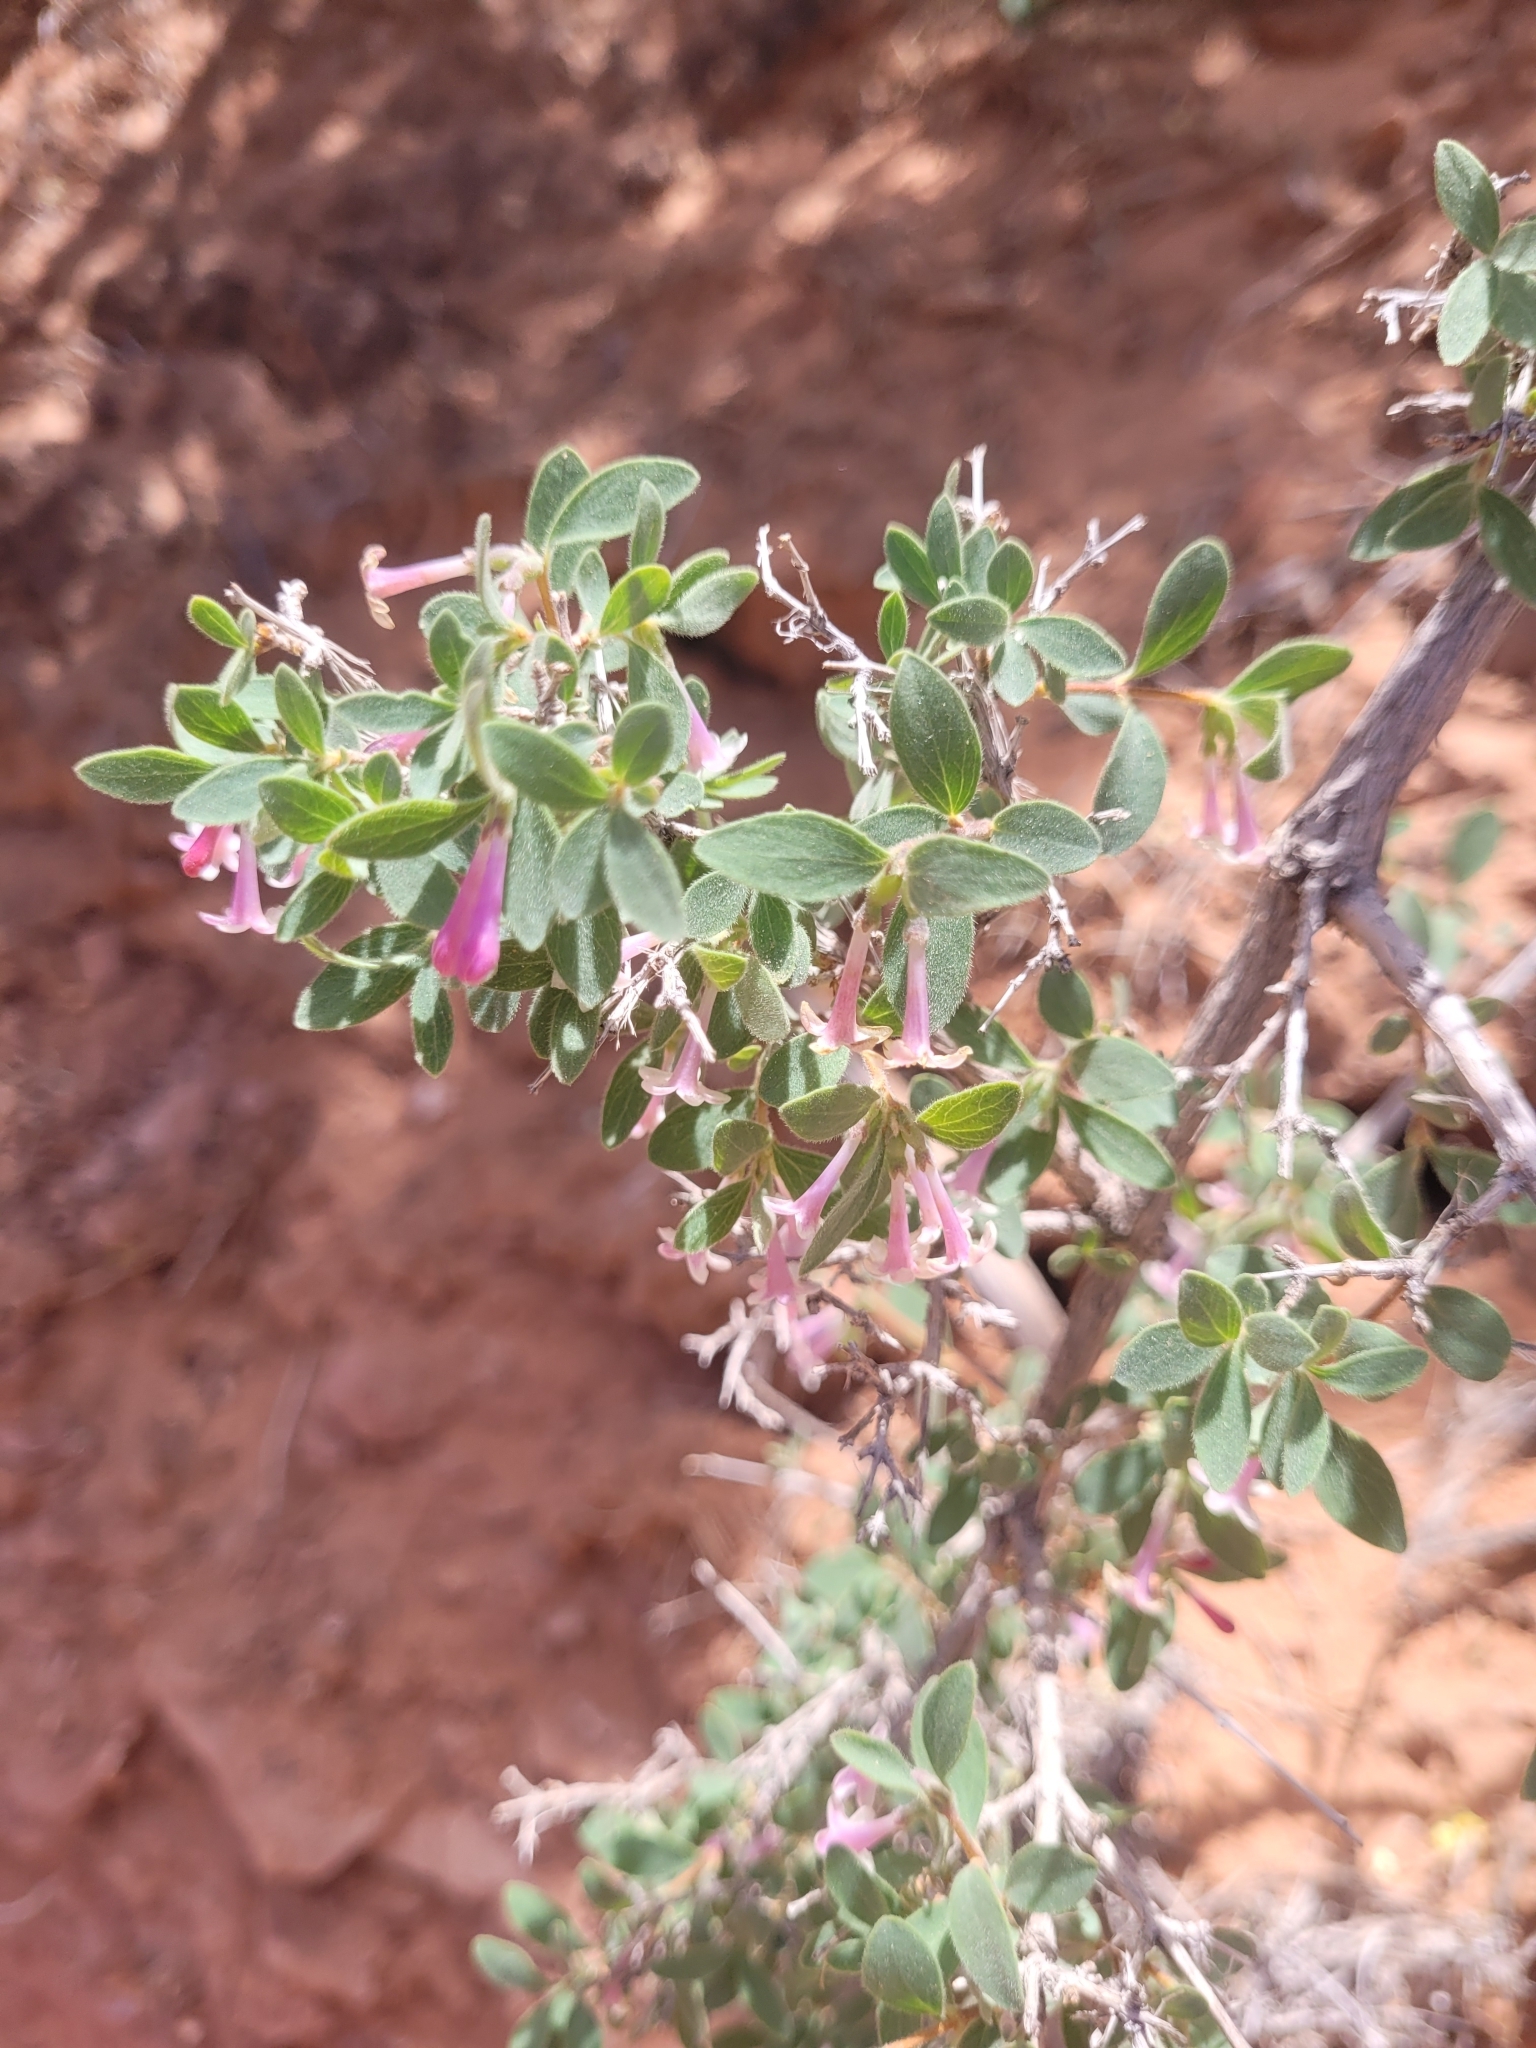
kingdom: Plantae
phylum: Tracheophyta
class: Magnoliopsida
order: Dipsacales
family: Caprifoliaceae
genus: Symphoricarpos
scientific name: Symphoricarpos longiflorus
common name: Fragrant snowberry
